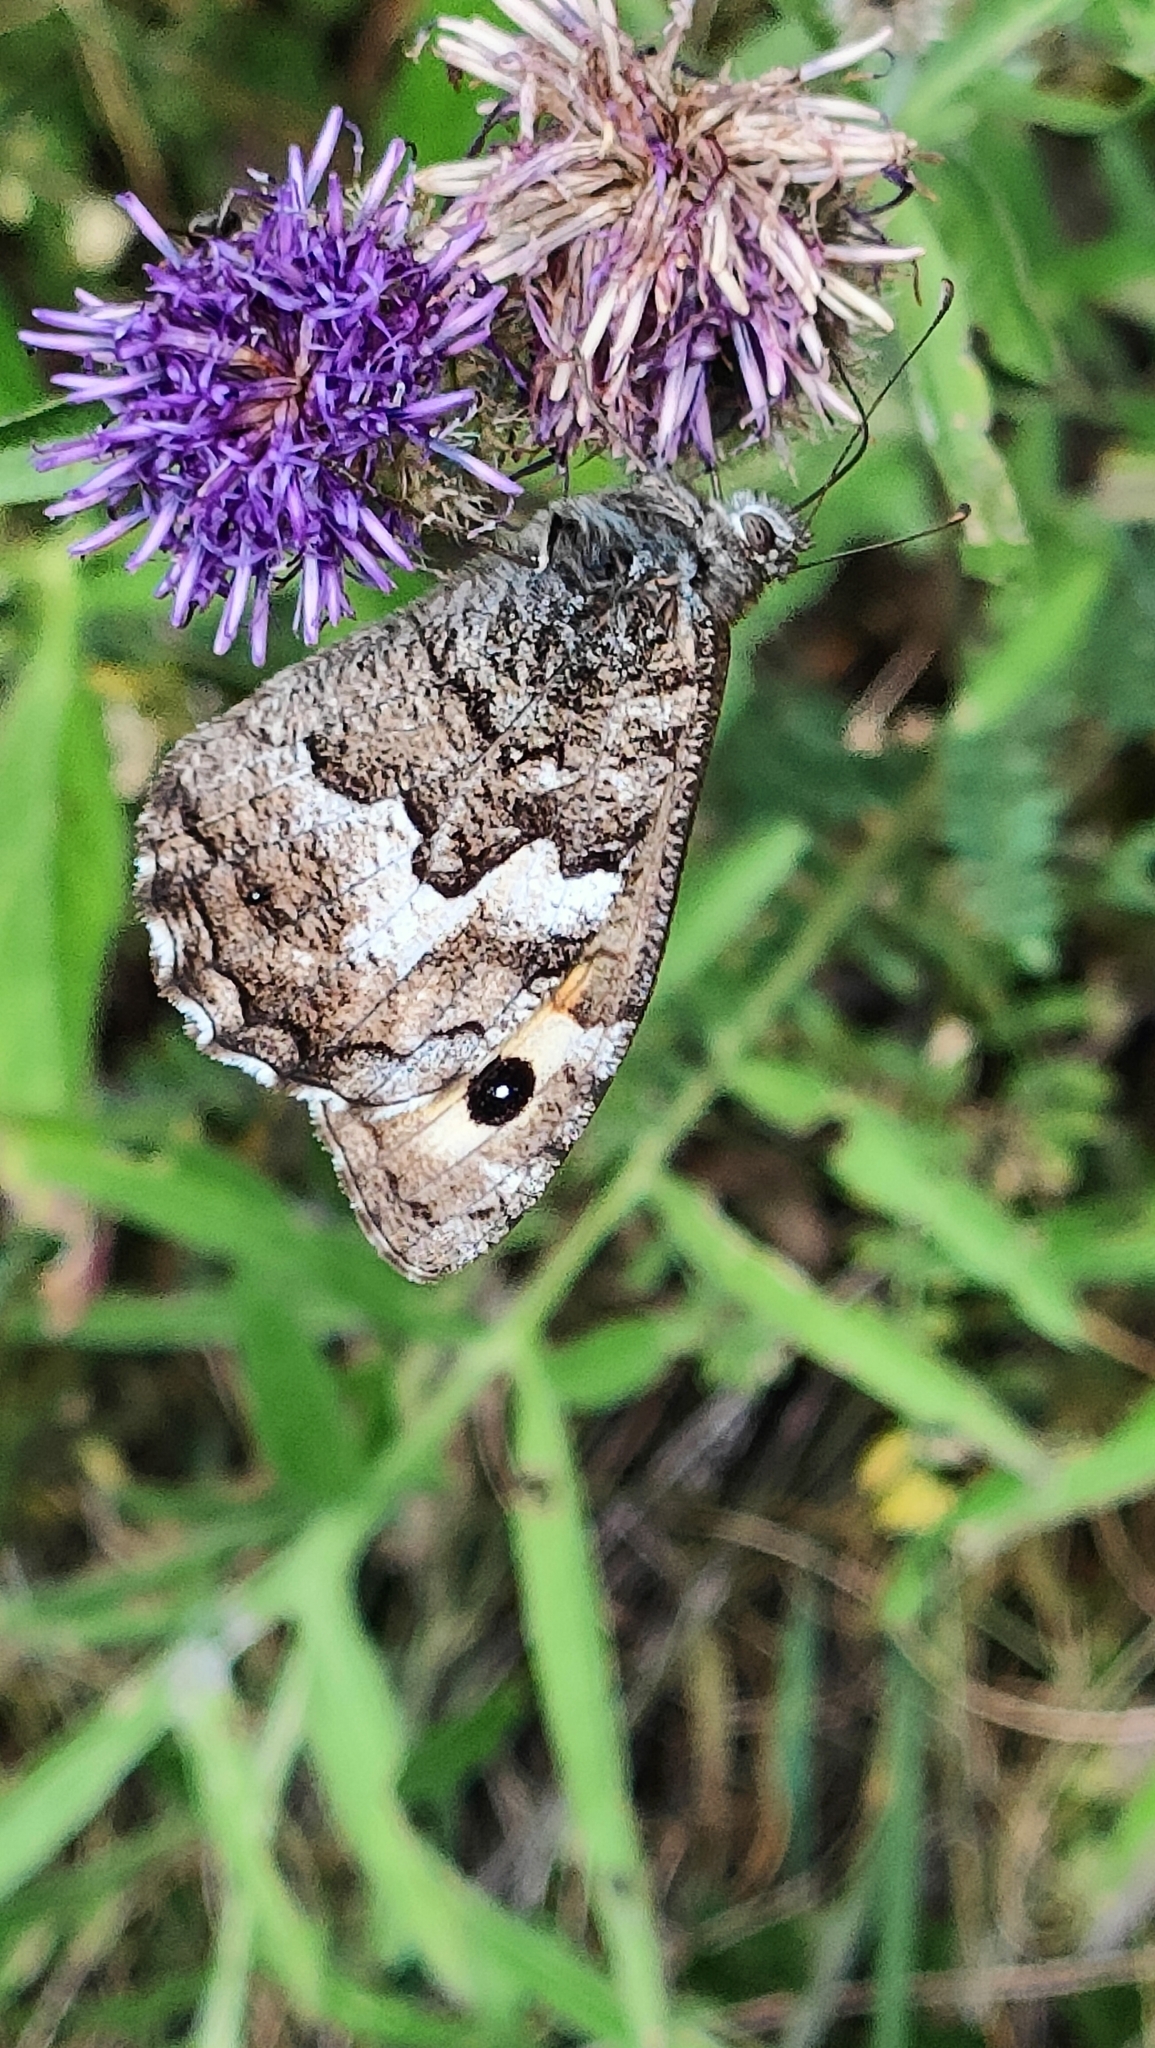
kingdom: Animalia
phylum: Arthropoda
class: Insecta
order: Lepidoptera
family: Nymphalidae
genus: Hipparchia
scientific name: Hipparchia semele
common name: Grayling
